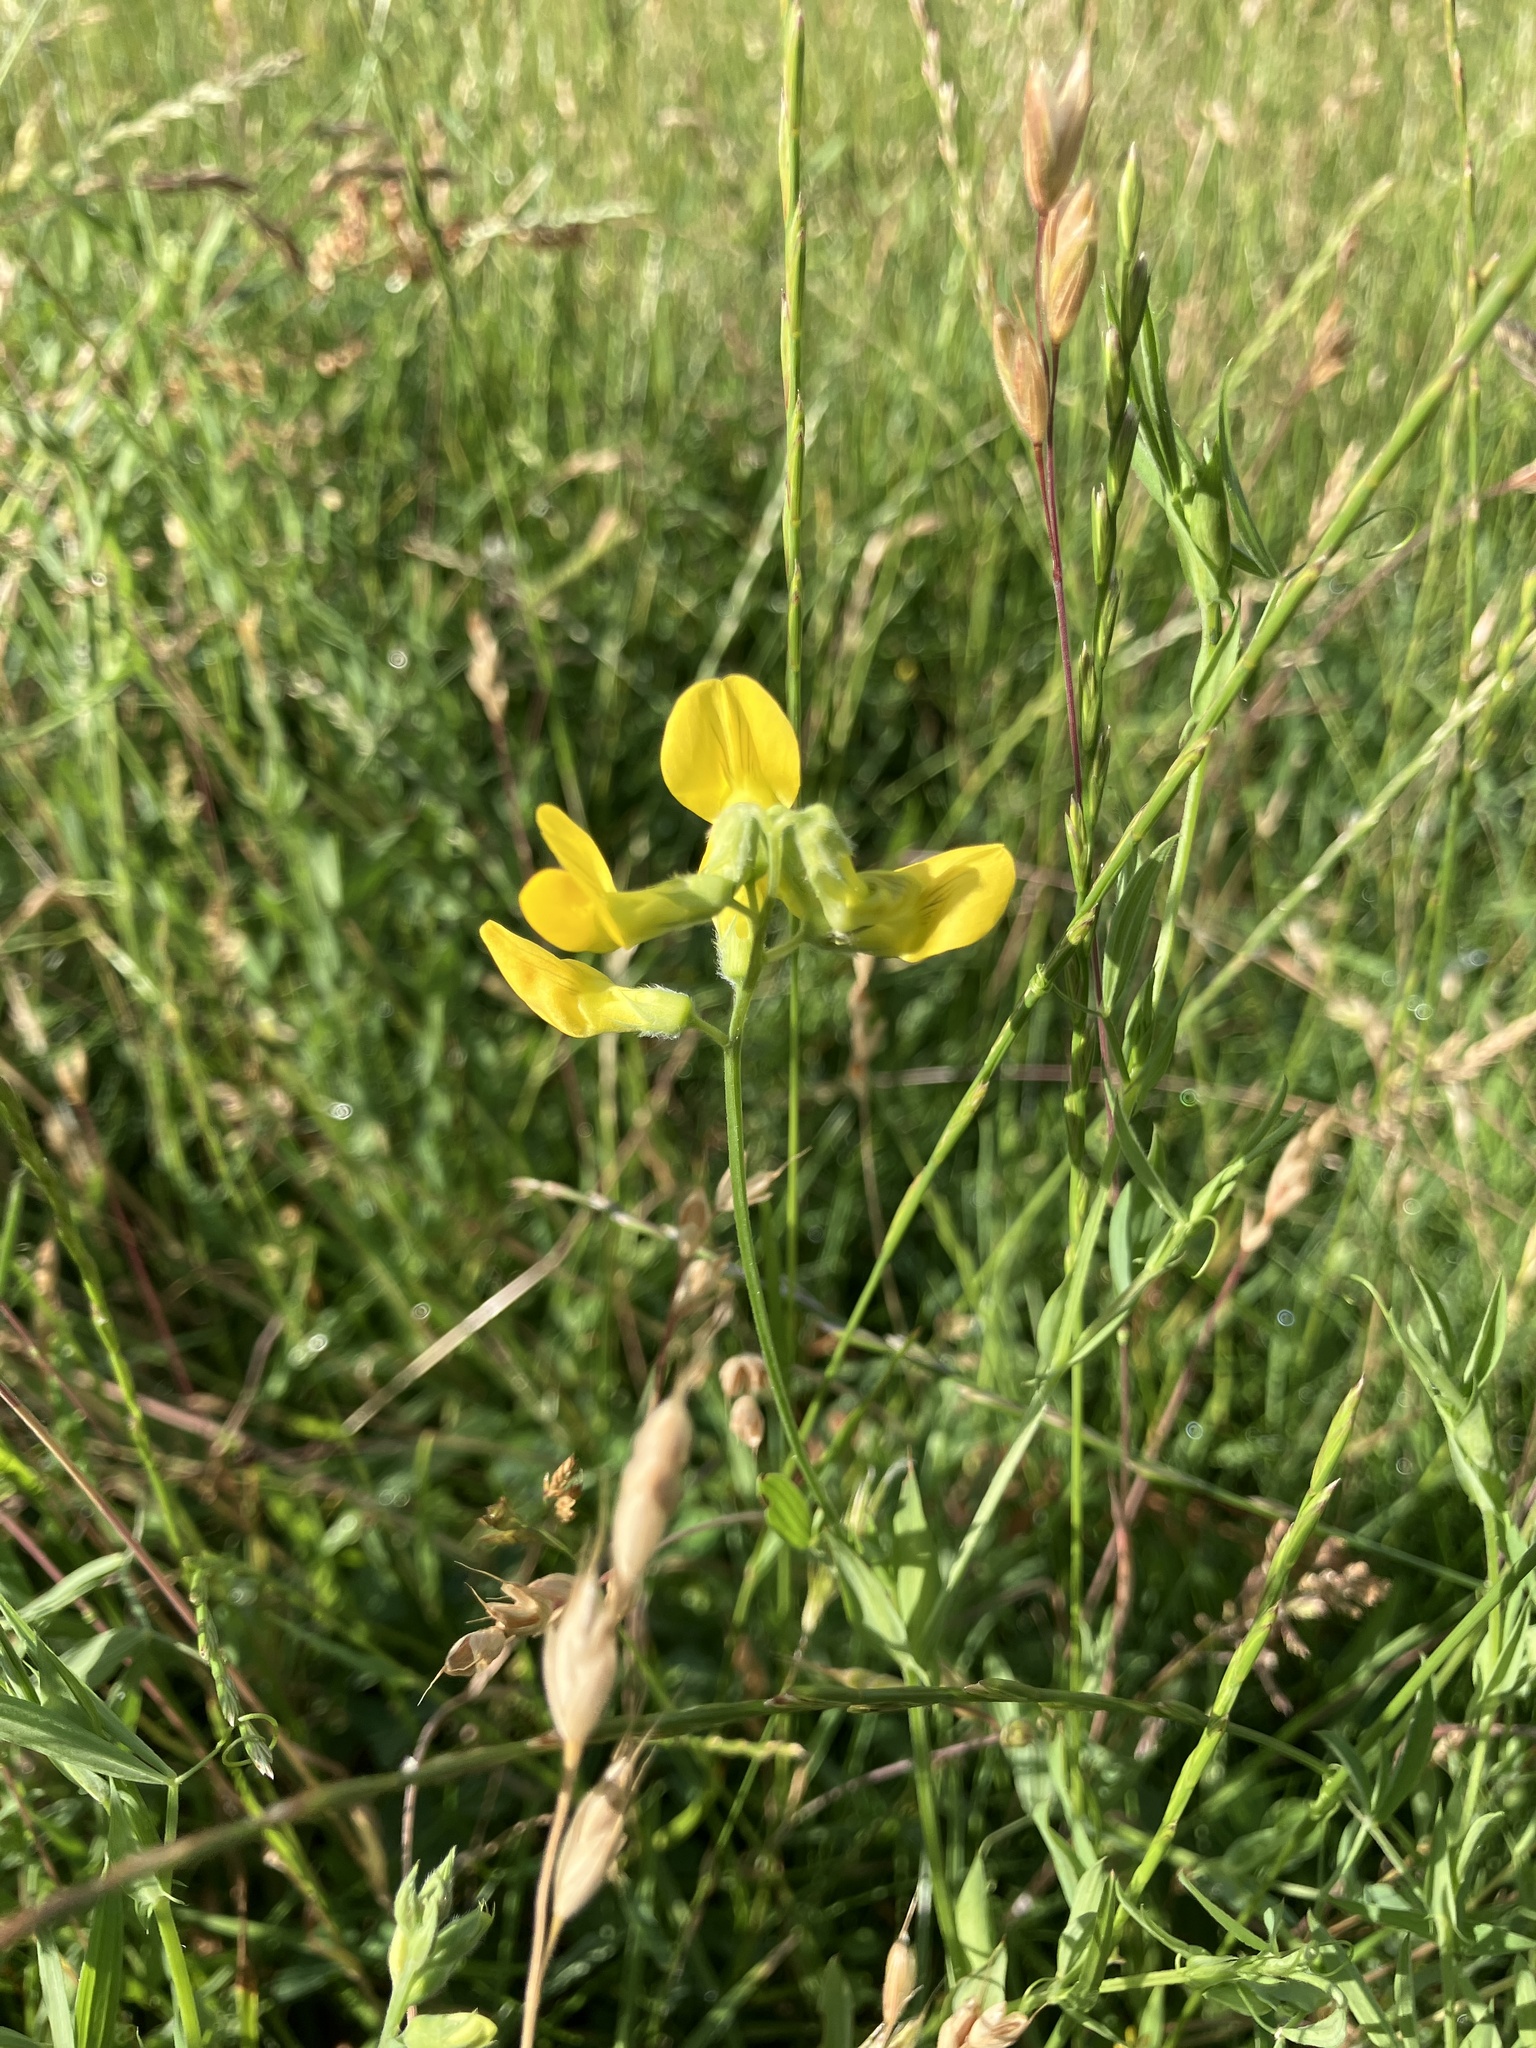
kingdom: Plantae
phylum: Tracheophyta
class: Magnoliopsida
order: Fabales
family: Fabaceae
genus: Lathyrus
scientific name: Lathyrus pratensis
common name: Meadow vetchling
